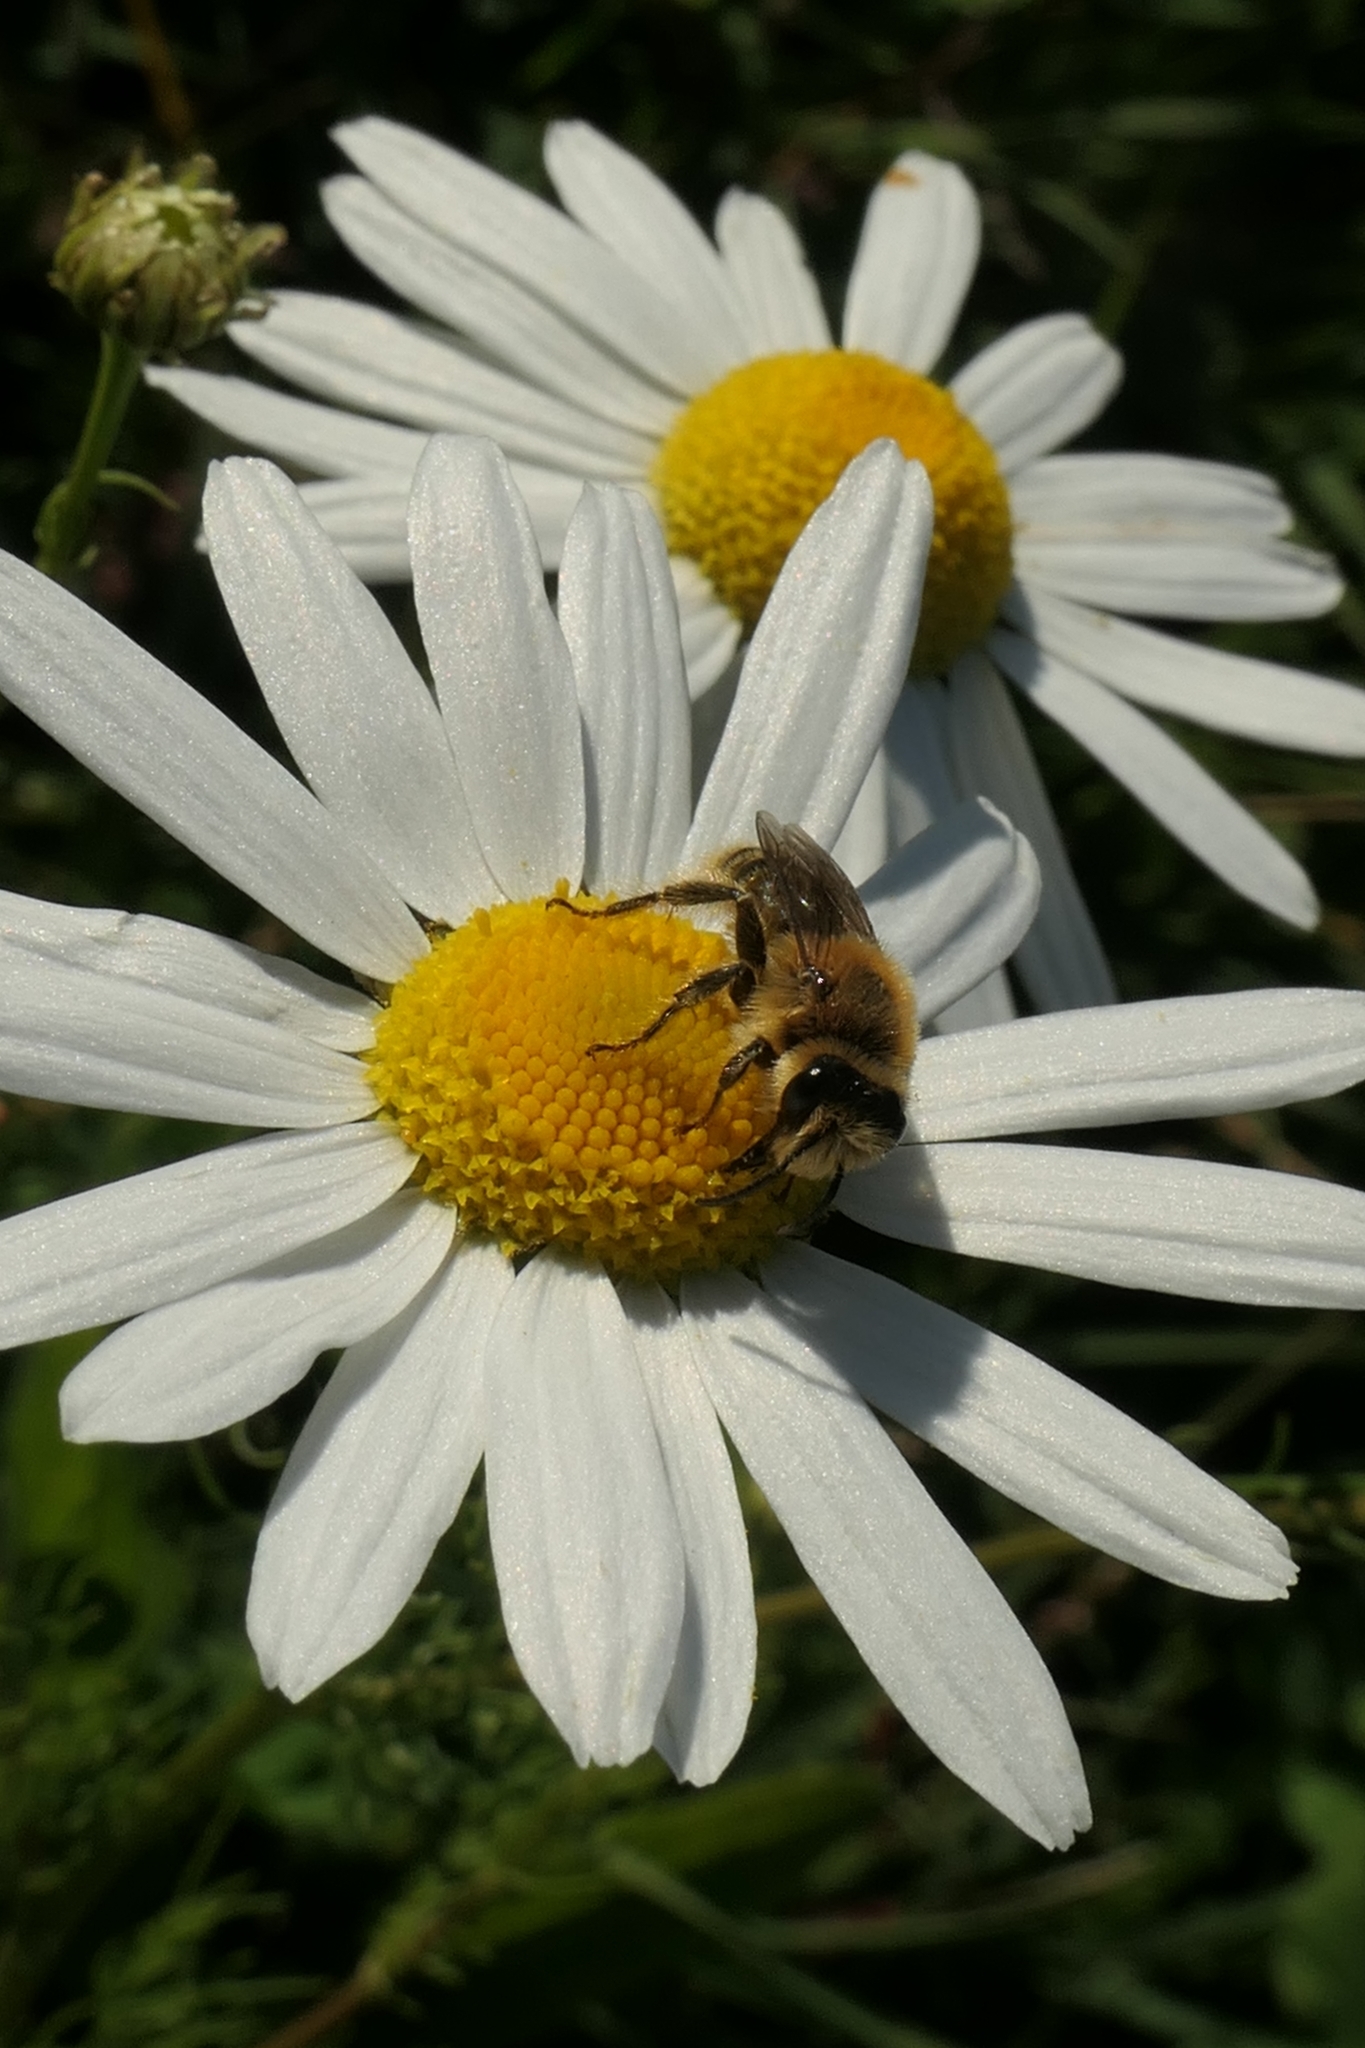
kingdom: Animalia
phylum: Arthropoda
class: Insecta
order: Hymenoptera
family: Colletidae
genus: Leioproctus
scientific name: Leioproctus fulvescens
